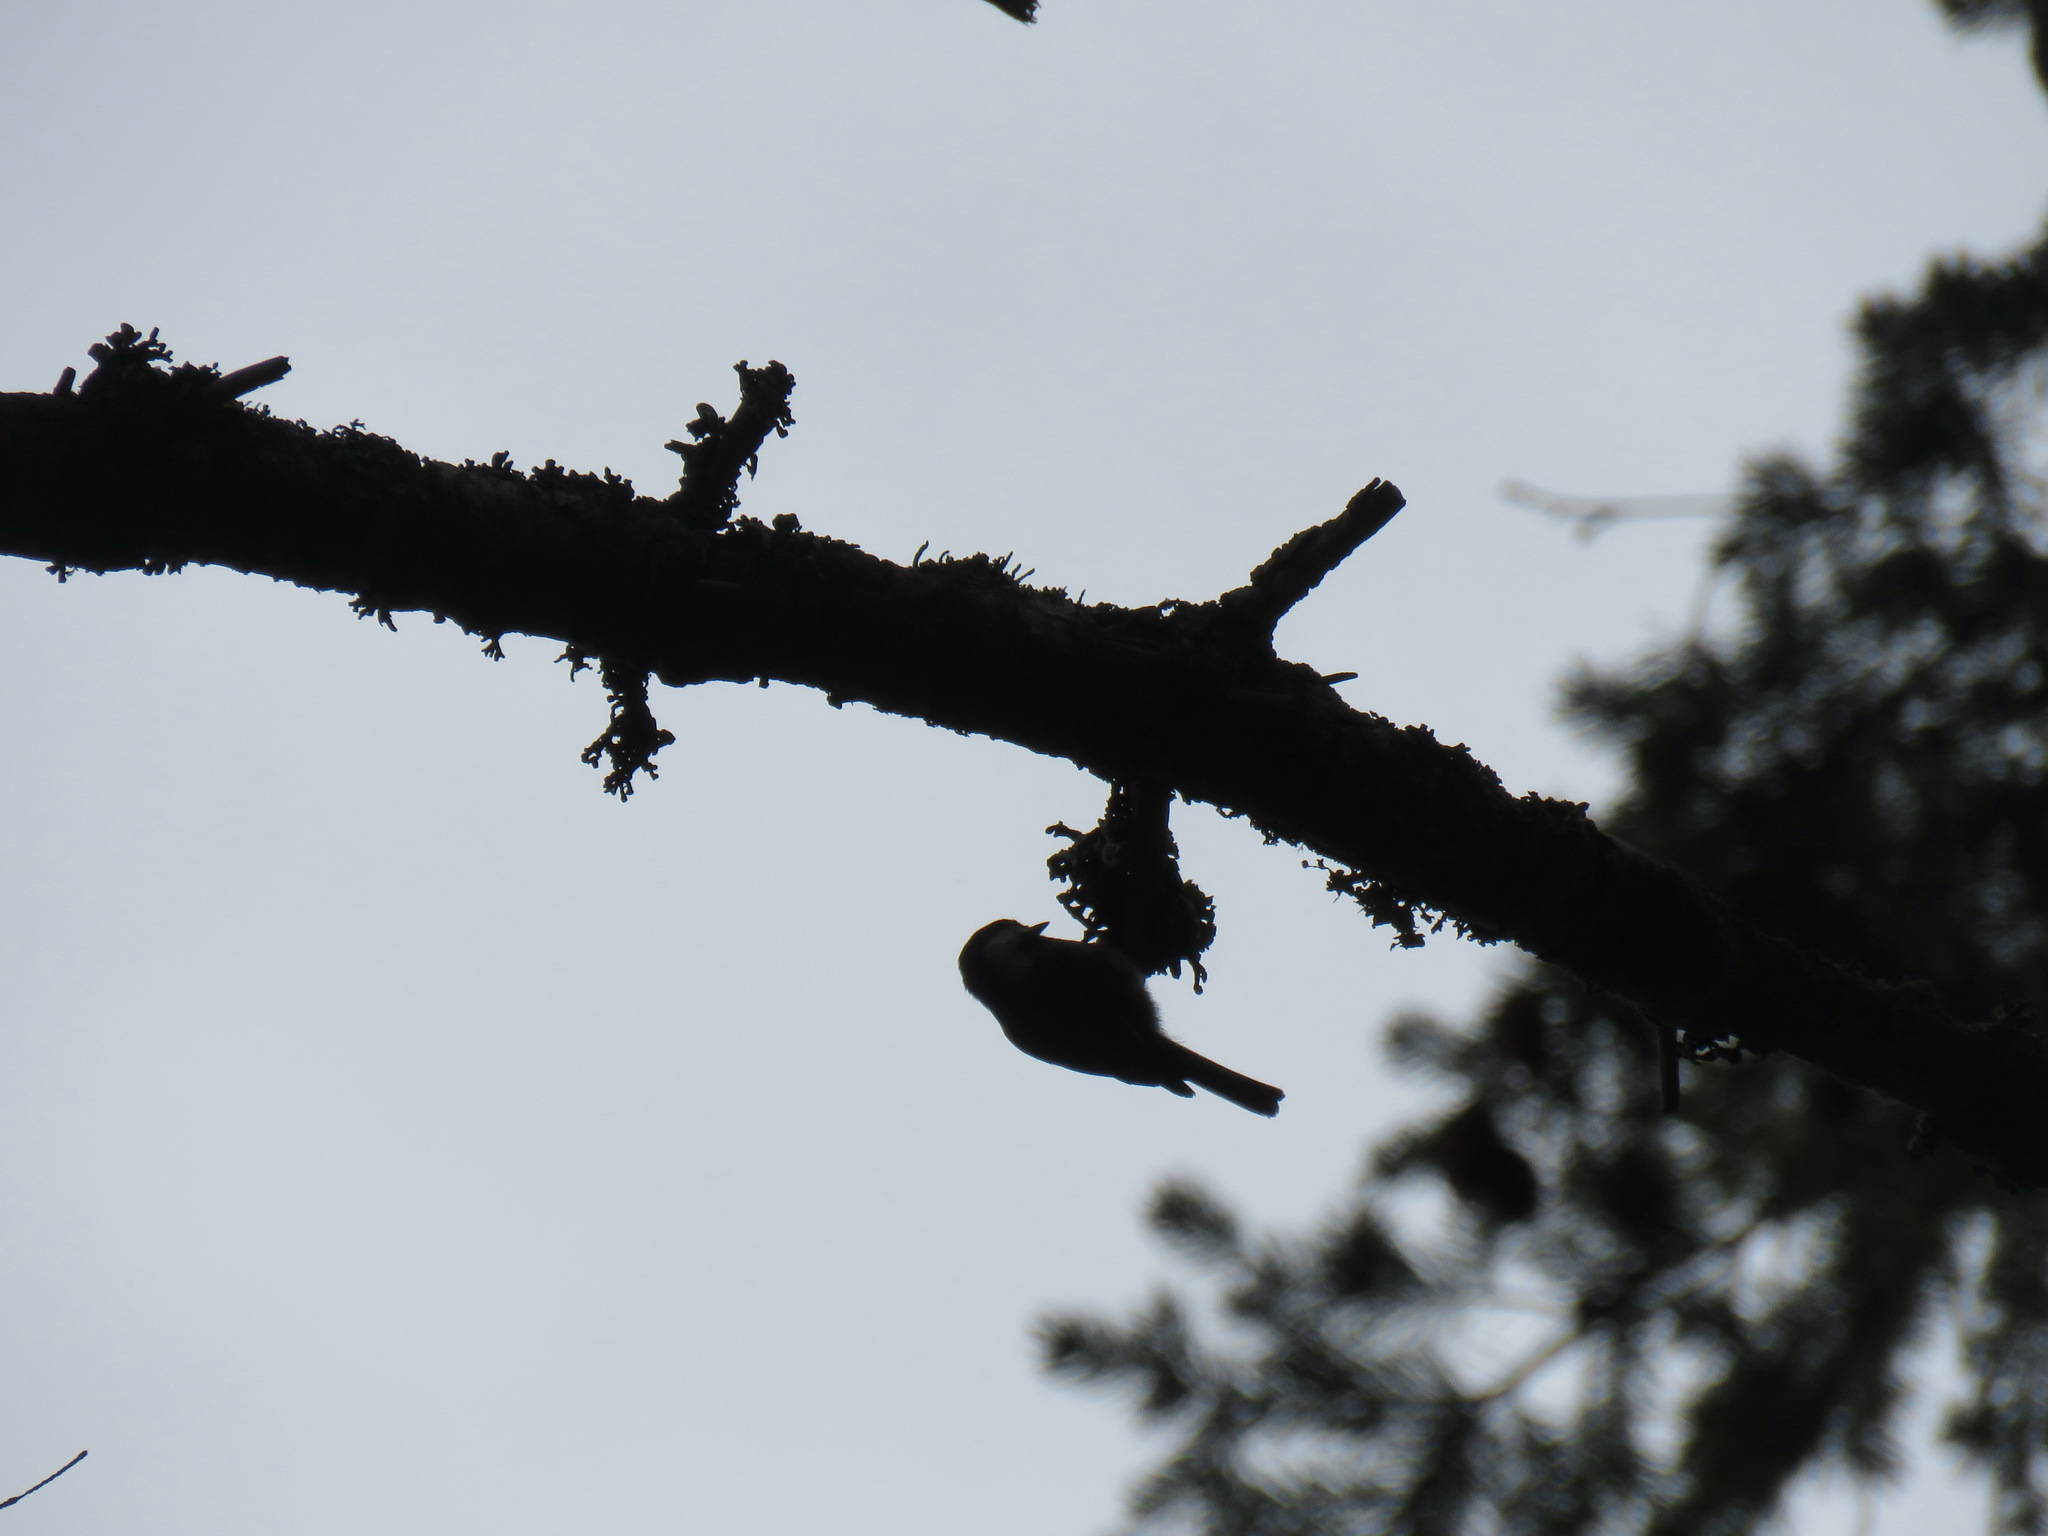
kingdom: Animalia
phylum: Chordata
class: Aves
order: Passeriformes
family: Paridae
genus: Poecile
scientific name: Poecile rufescens
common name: Chestnut-backed chickadee
